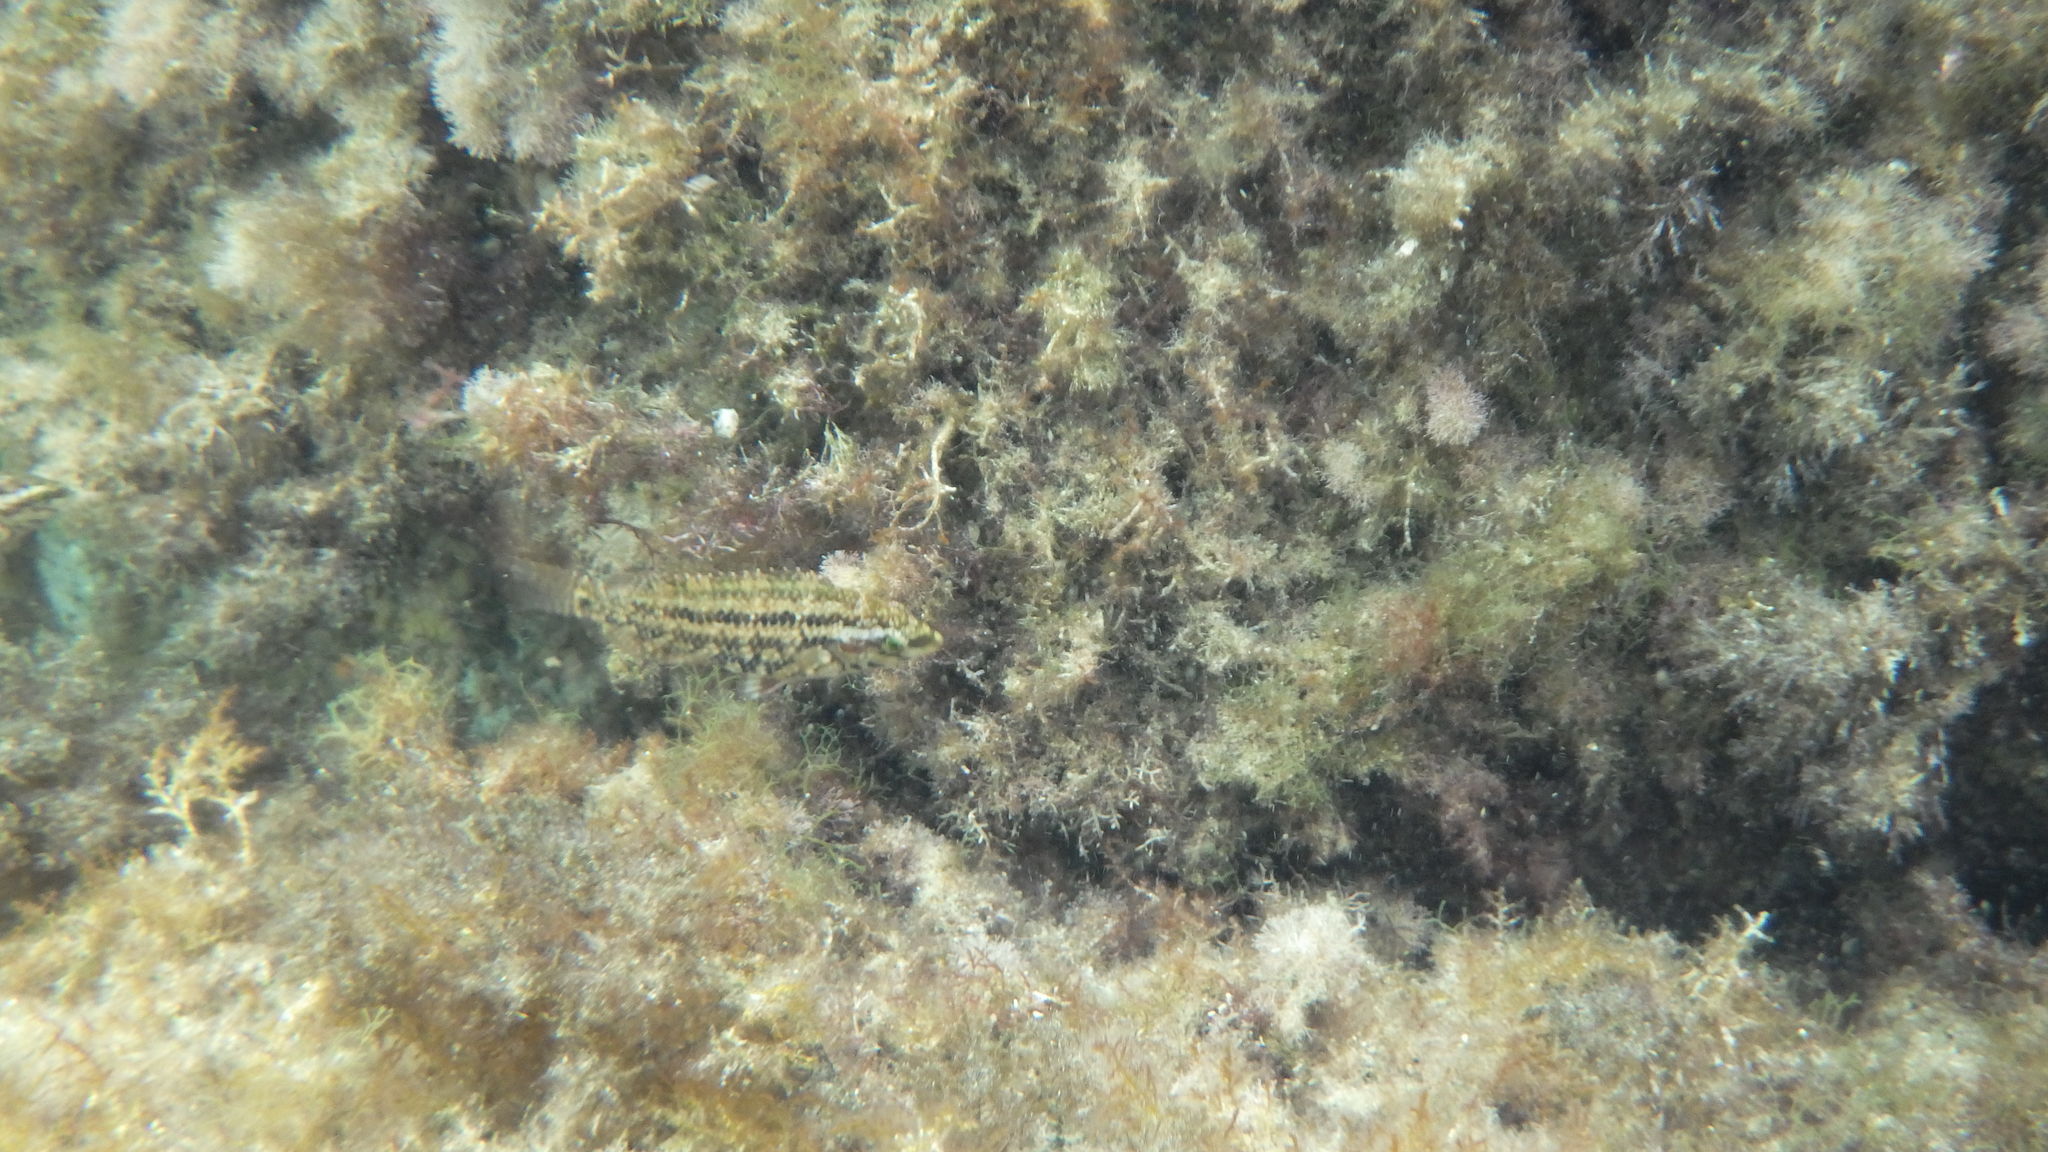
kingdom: Animalia
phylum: Chordata
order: Perciformes
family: Labridae
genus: Symphodus
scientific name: Symphodus roissali
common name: Five-spotted wrasse
